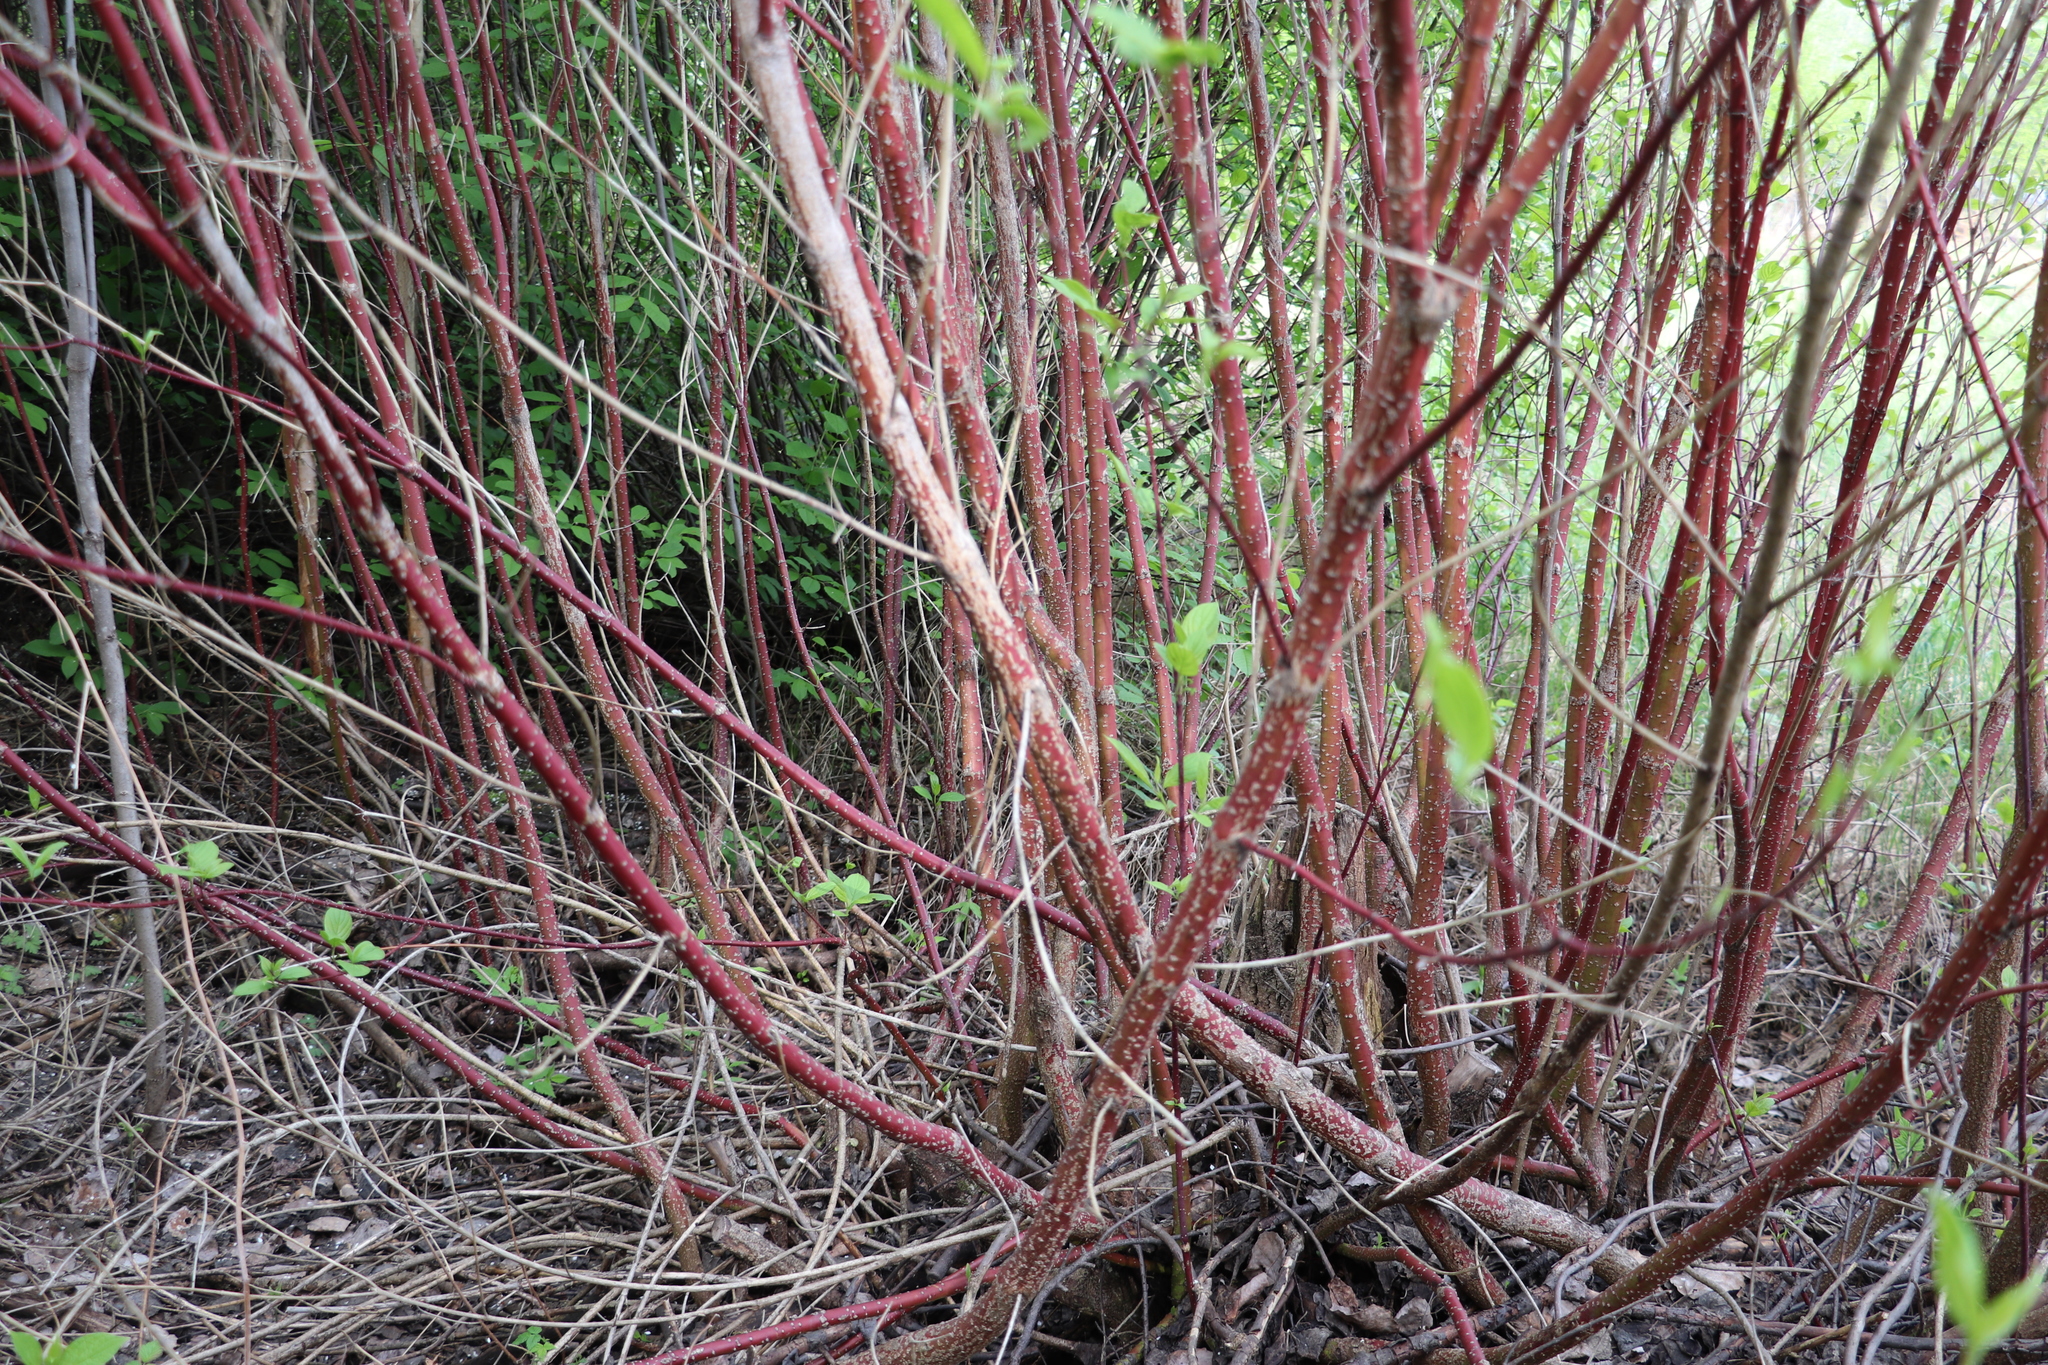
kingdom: Plantae
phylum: Tracheophyta
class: Magnoliopsida
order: Cornales
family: Cornaceae
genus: Cornus
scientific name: Cornus alba
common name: White dogwood
